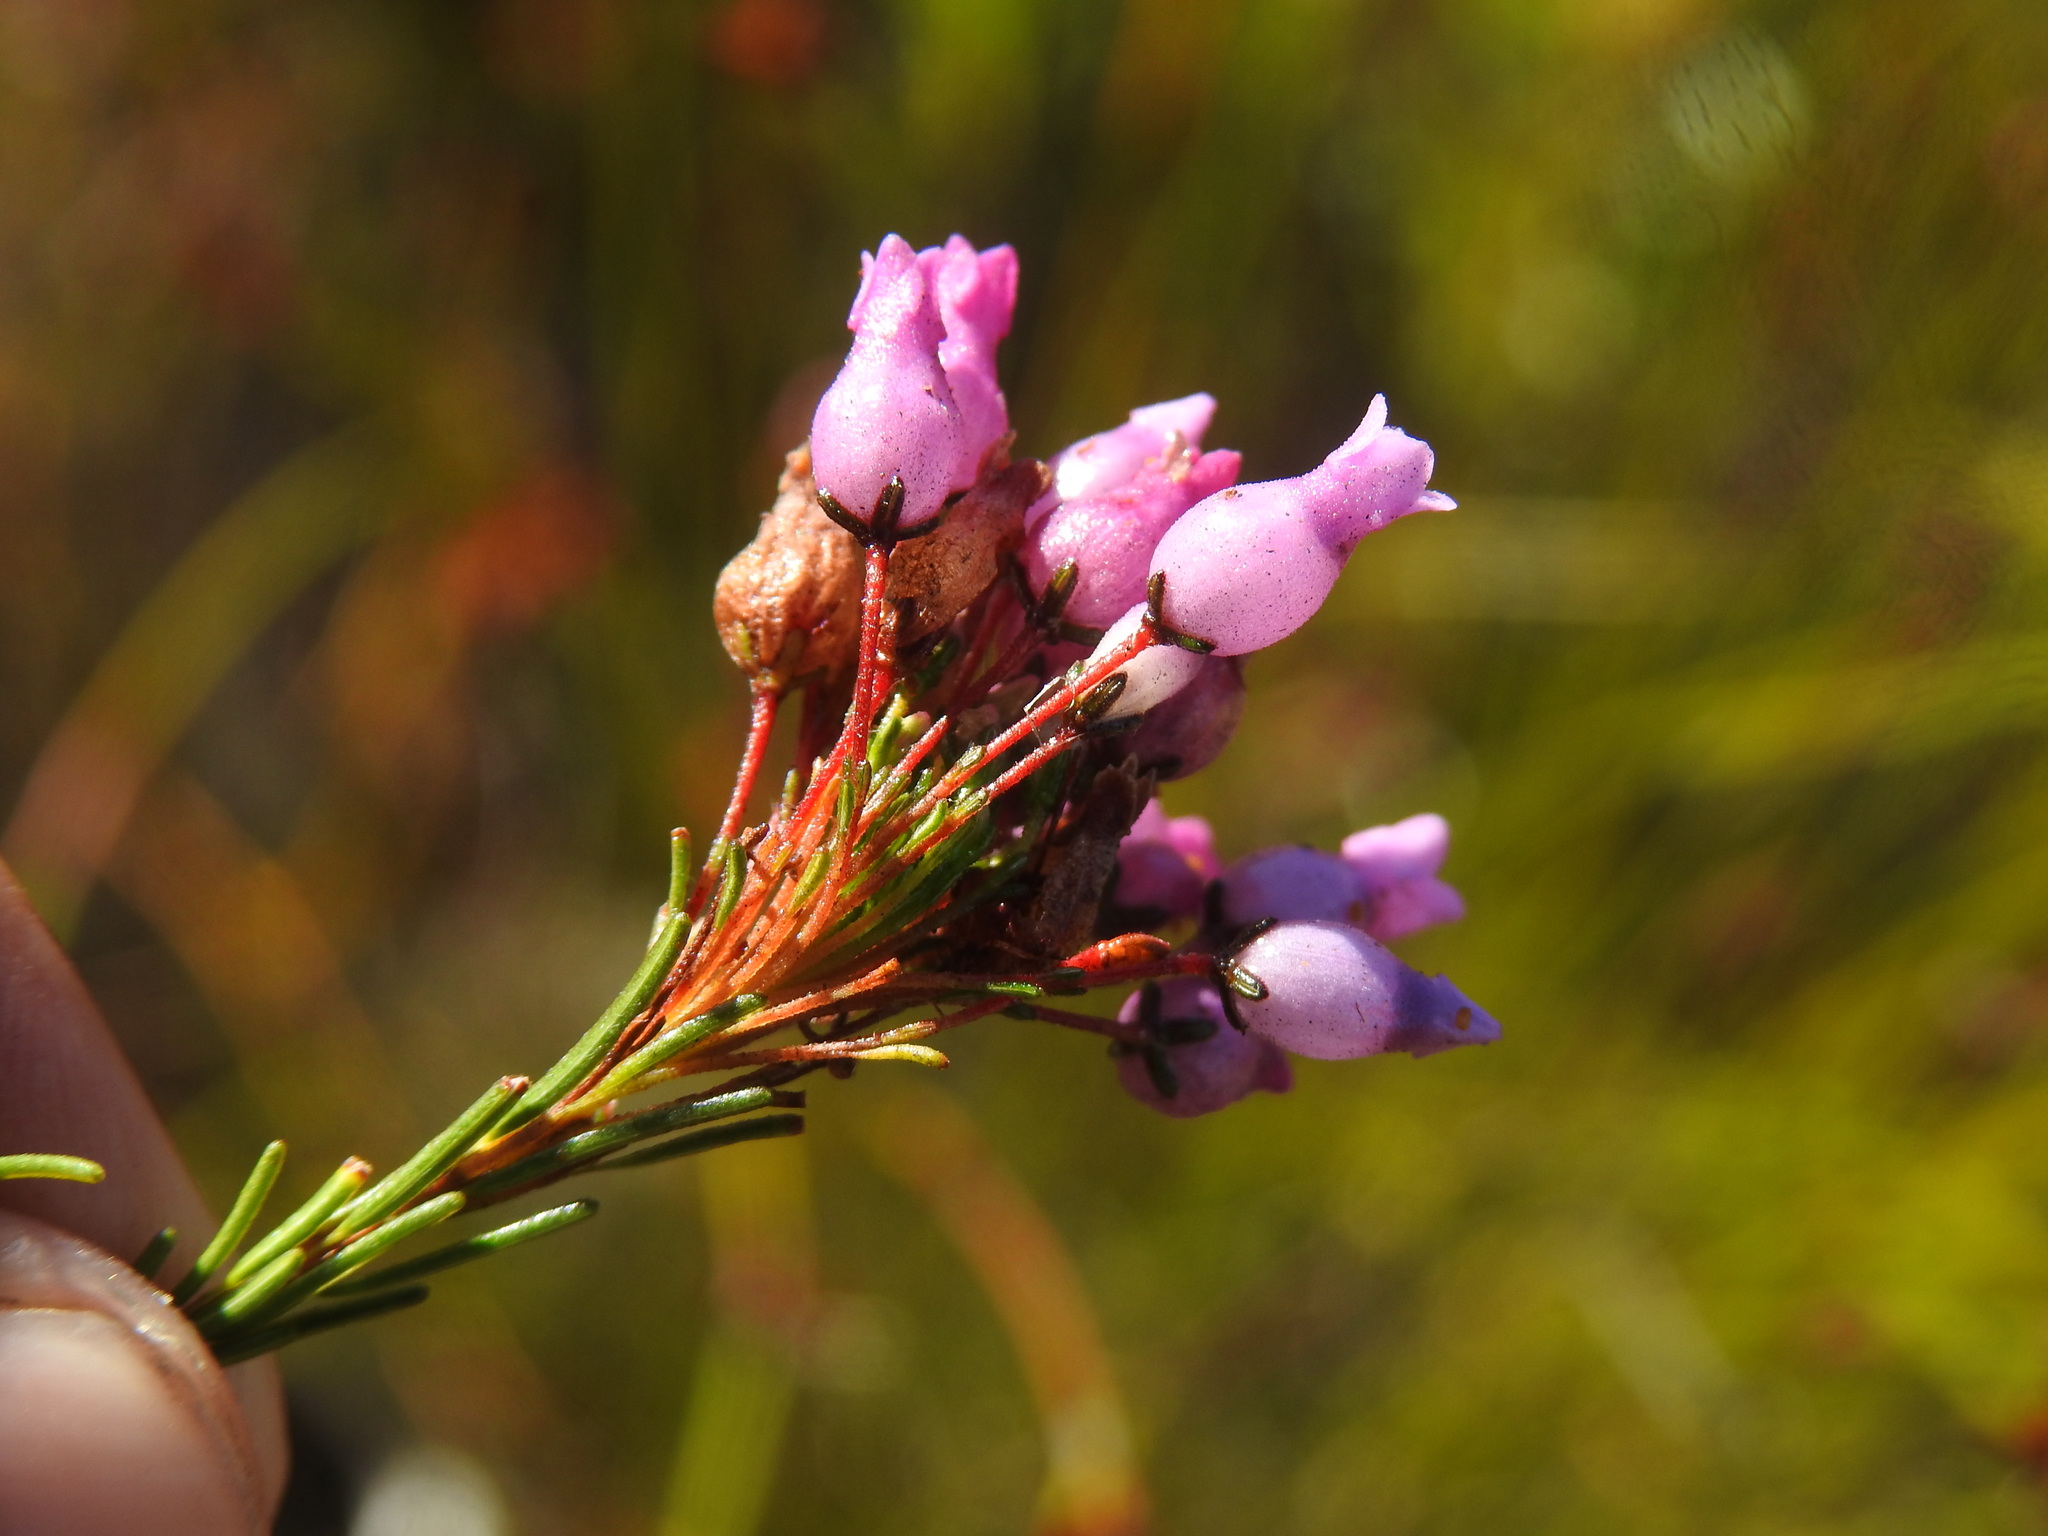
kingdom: Plantae
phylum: Tracheophyta
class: Magnoliopsida
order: Ericales
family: Ericaceae
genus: Erica
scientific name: Erica obliqua
